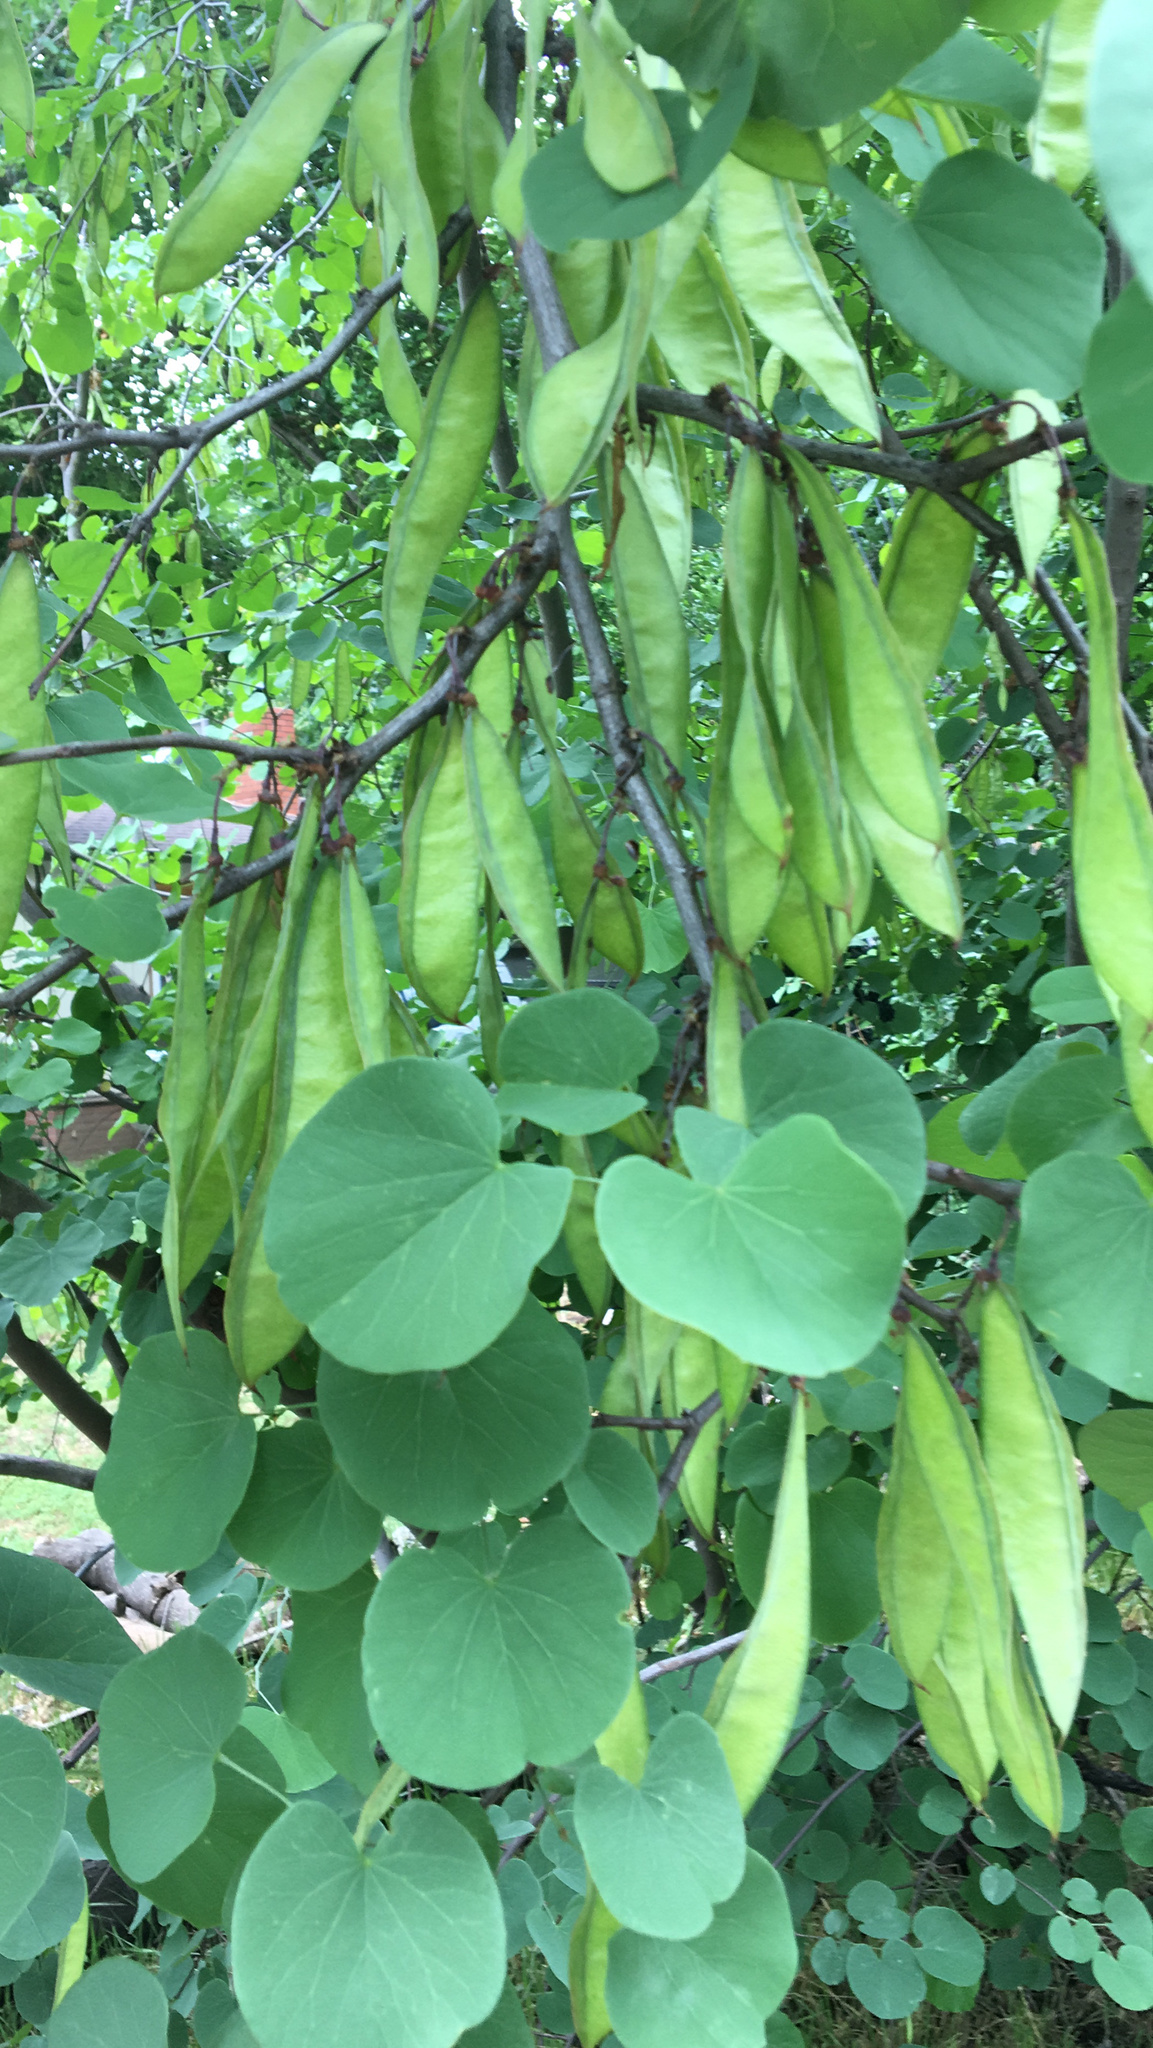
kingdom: Plantae
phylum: Tracheophyta
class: Magnoliopsida
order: Fabales
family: Fabaceae
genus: Cercis
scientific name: Cercis occidentalis
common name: California redbud
